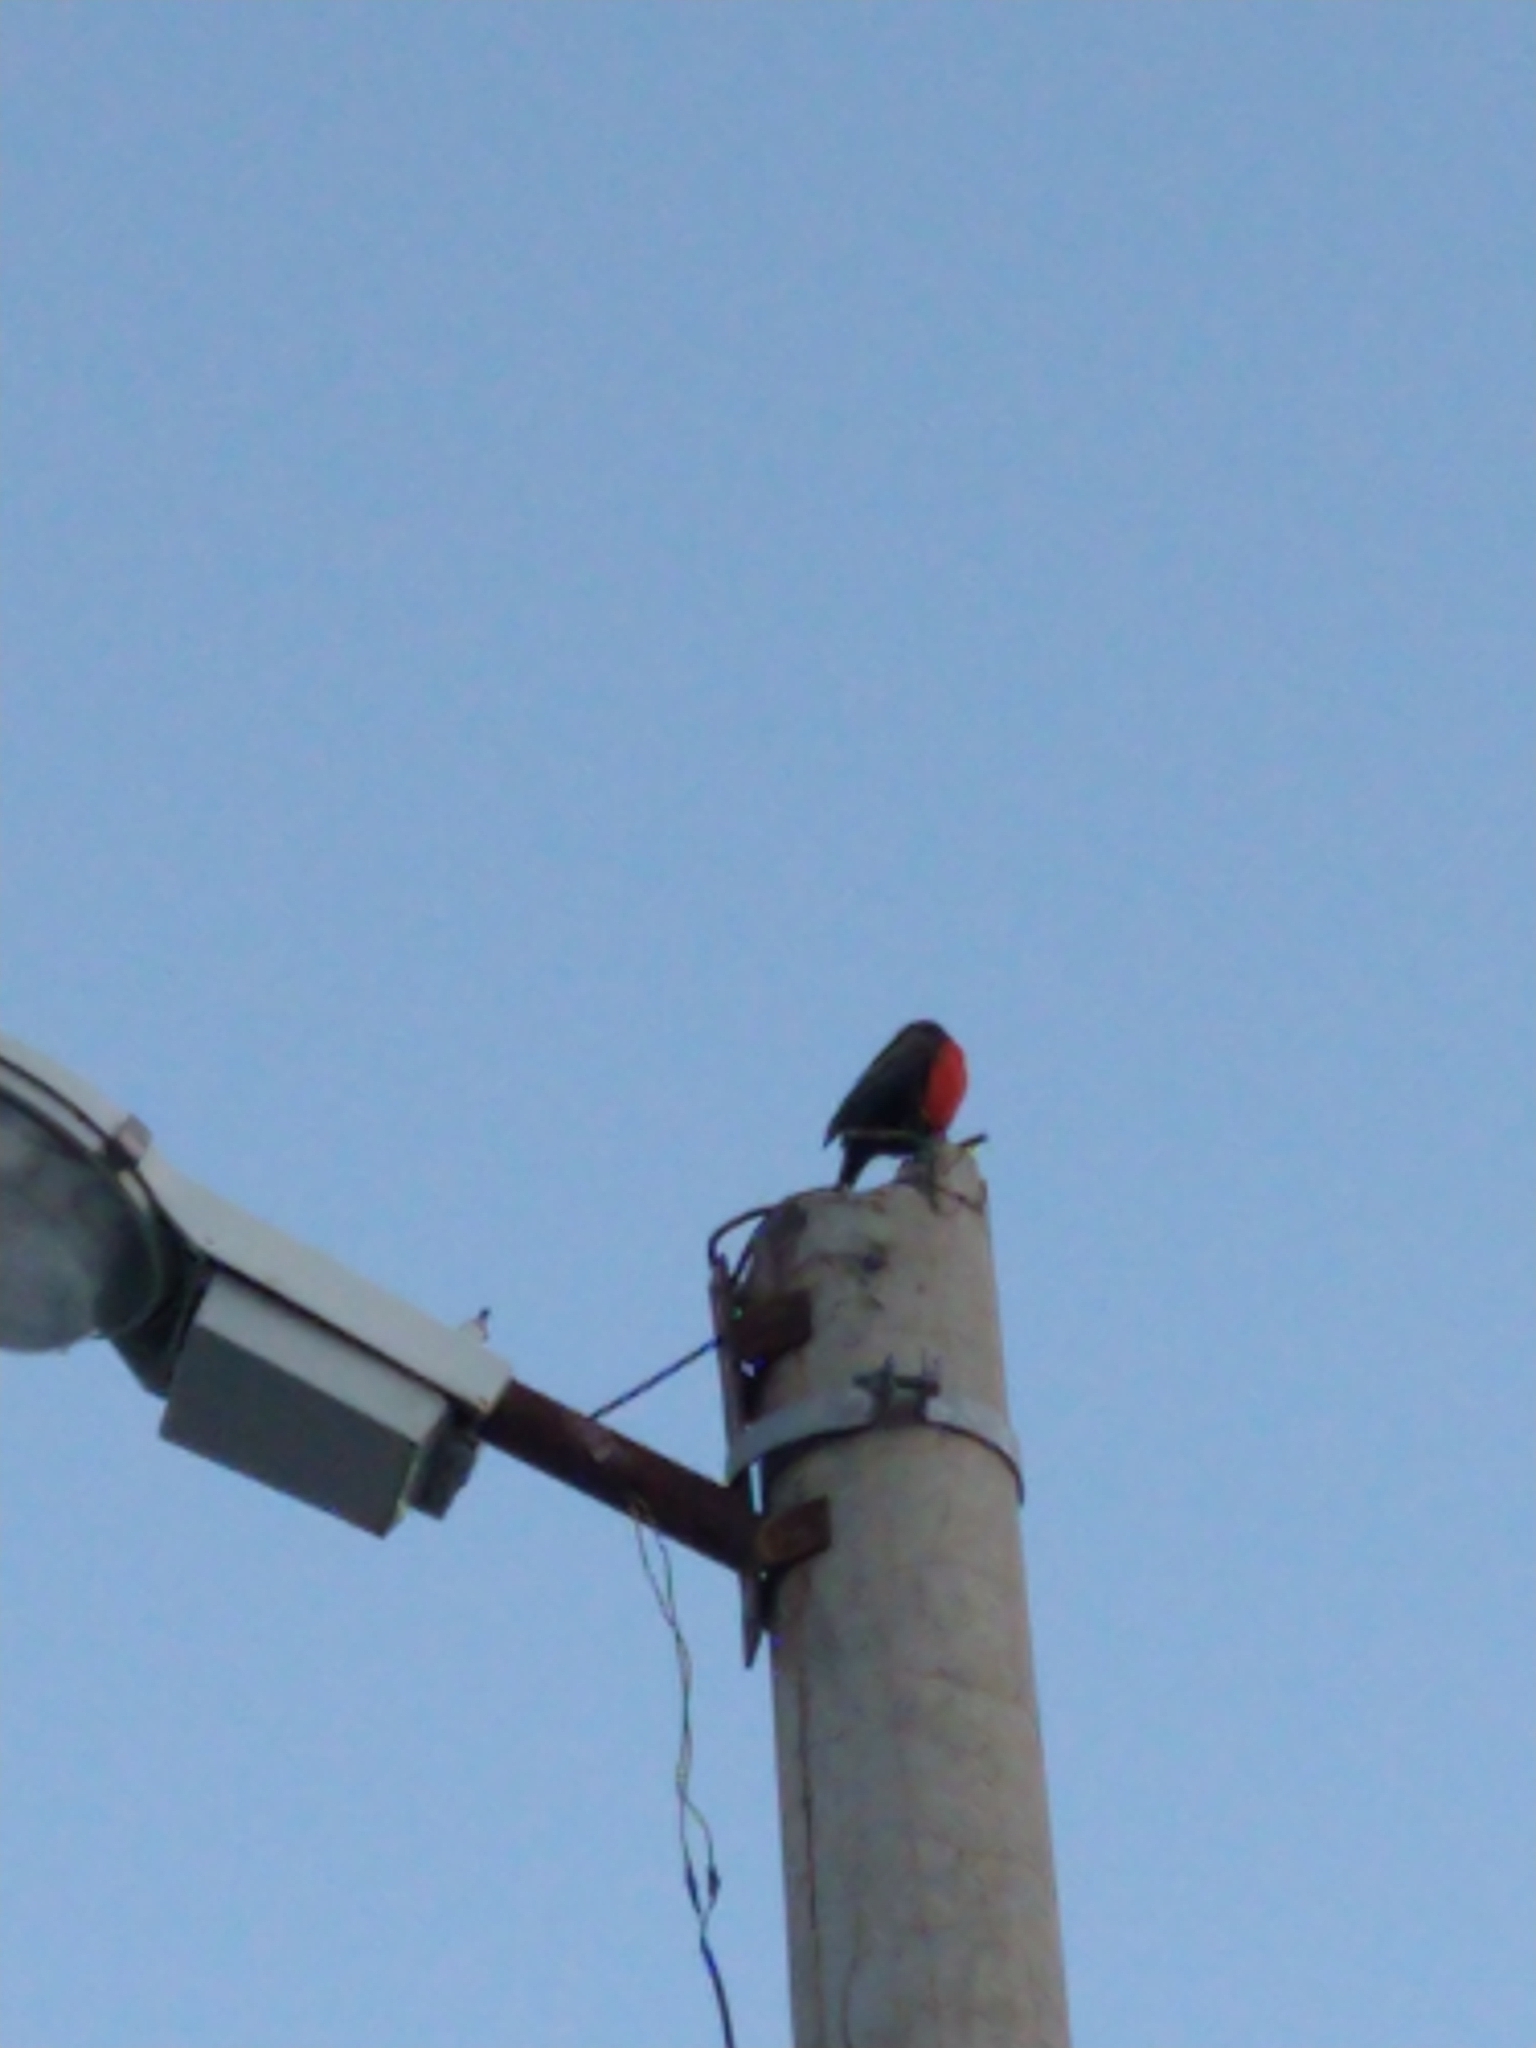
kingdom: Animalia
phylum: Chordata
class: Aves
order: Passeriformes
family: Icteridae
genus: Sturnella
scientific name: Sturnella loyca
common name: Long-tailed meadowlark
